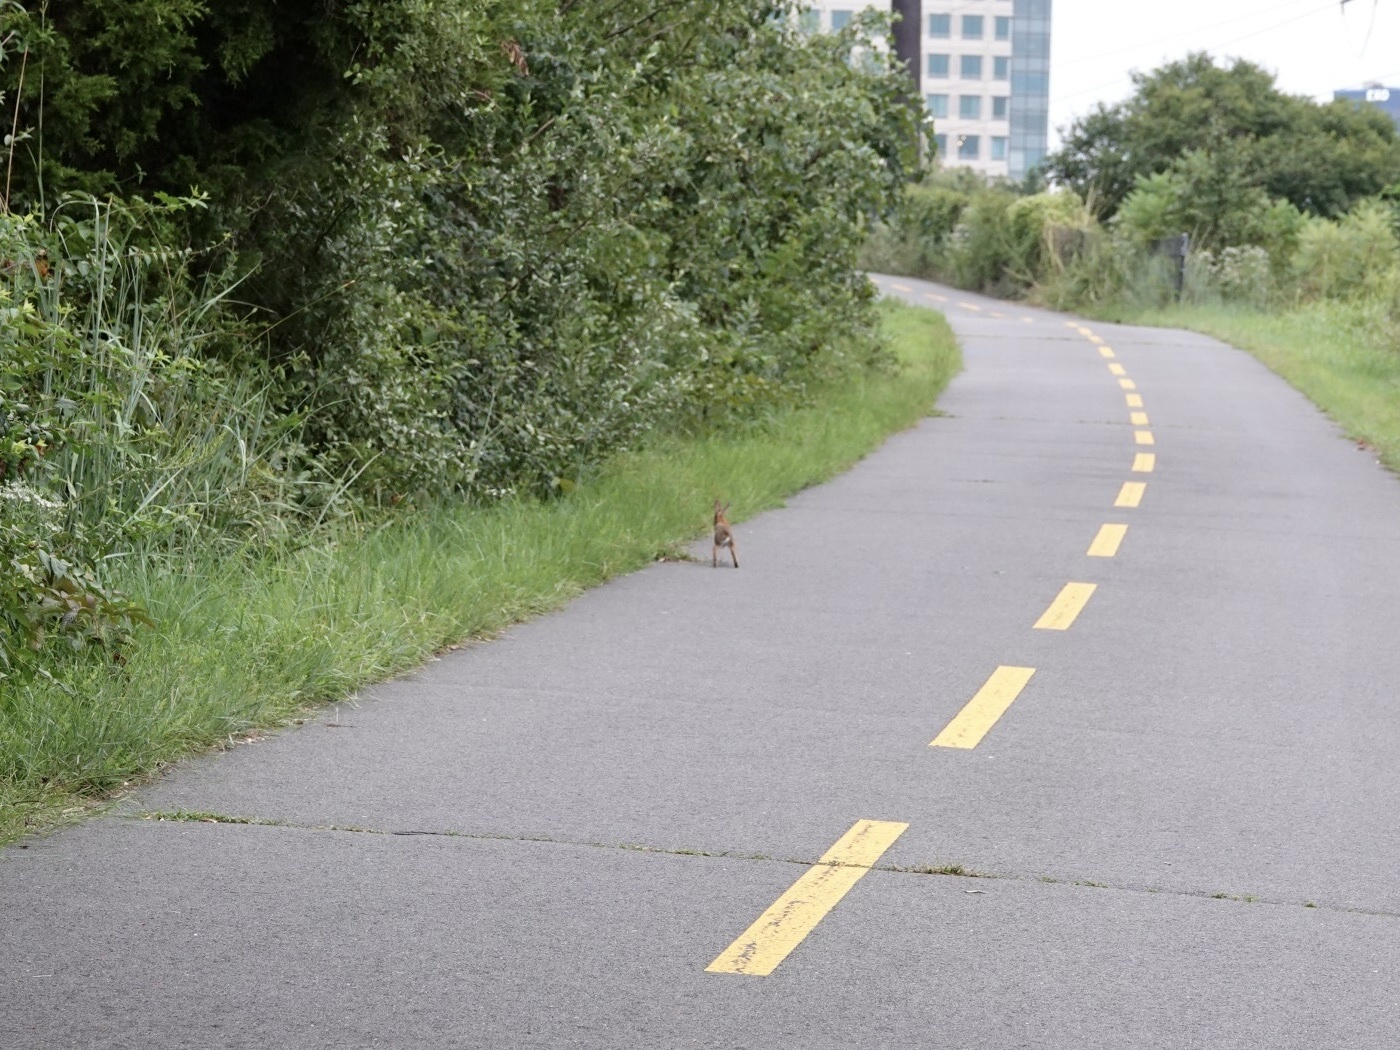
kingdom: Animalia
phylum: Chordata
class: Mammalia
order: Lagomorpha
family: Leporidae
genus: Sylvilagus
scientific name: Sylvilagus floridanus
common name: Eastern cottontail
